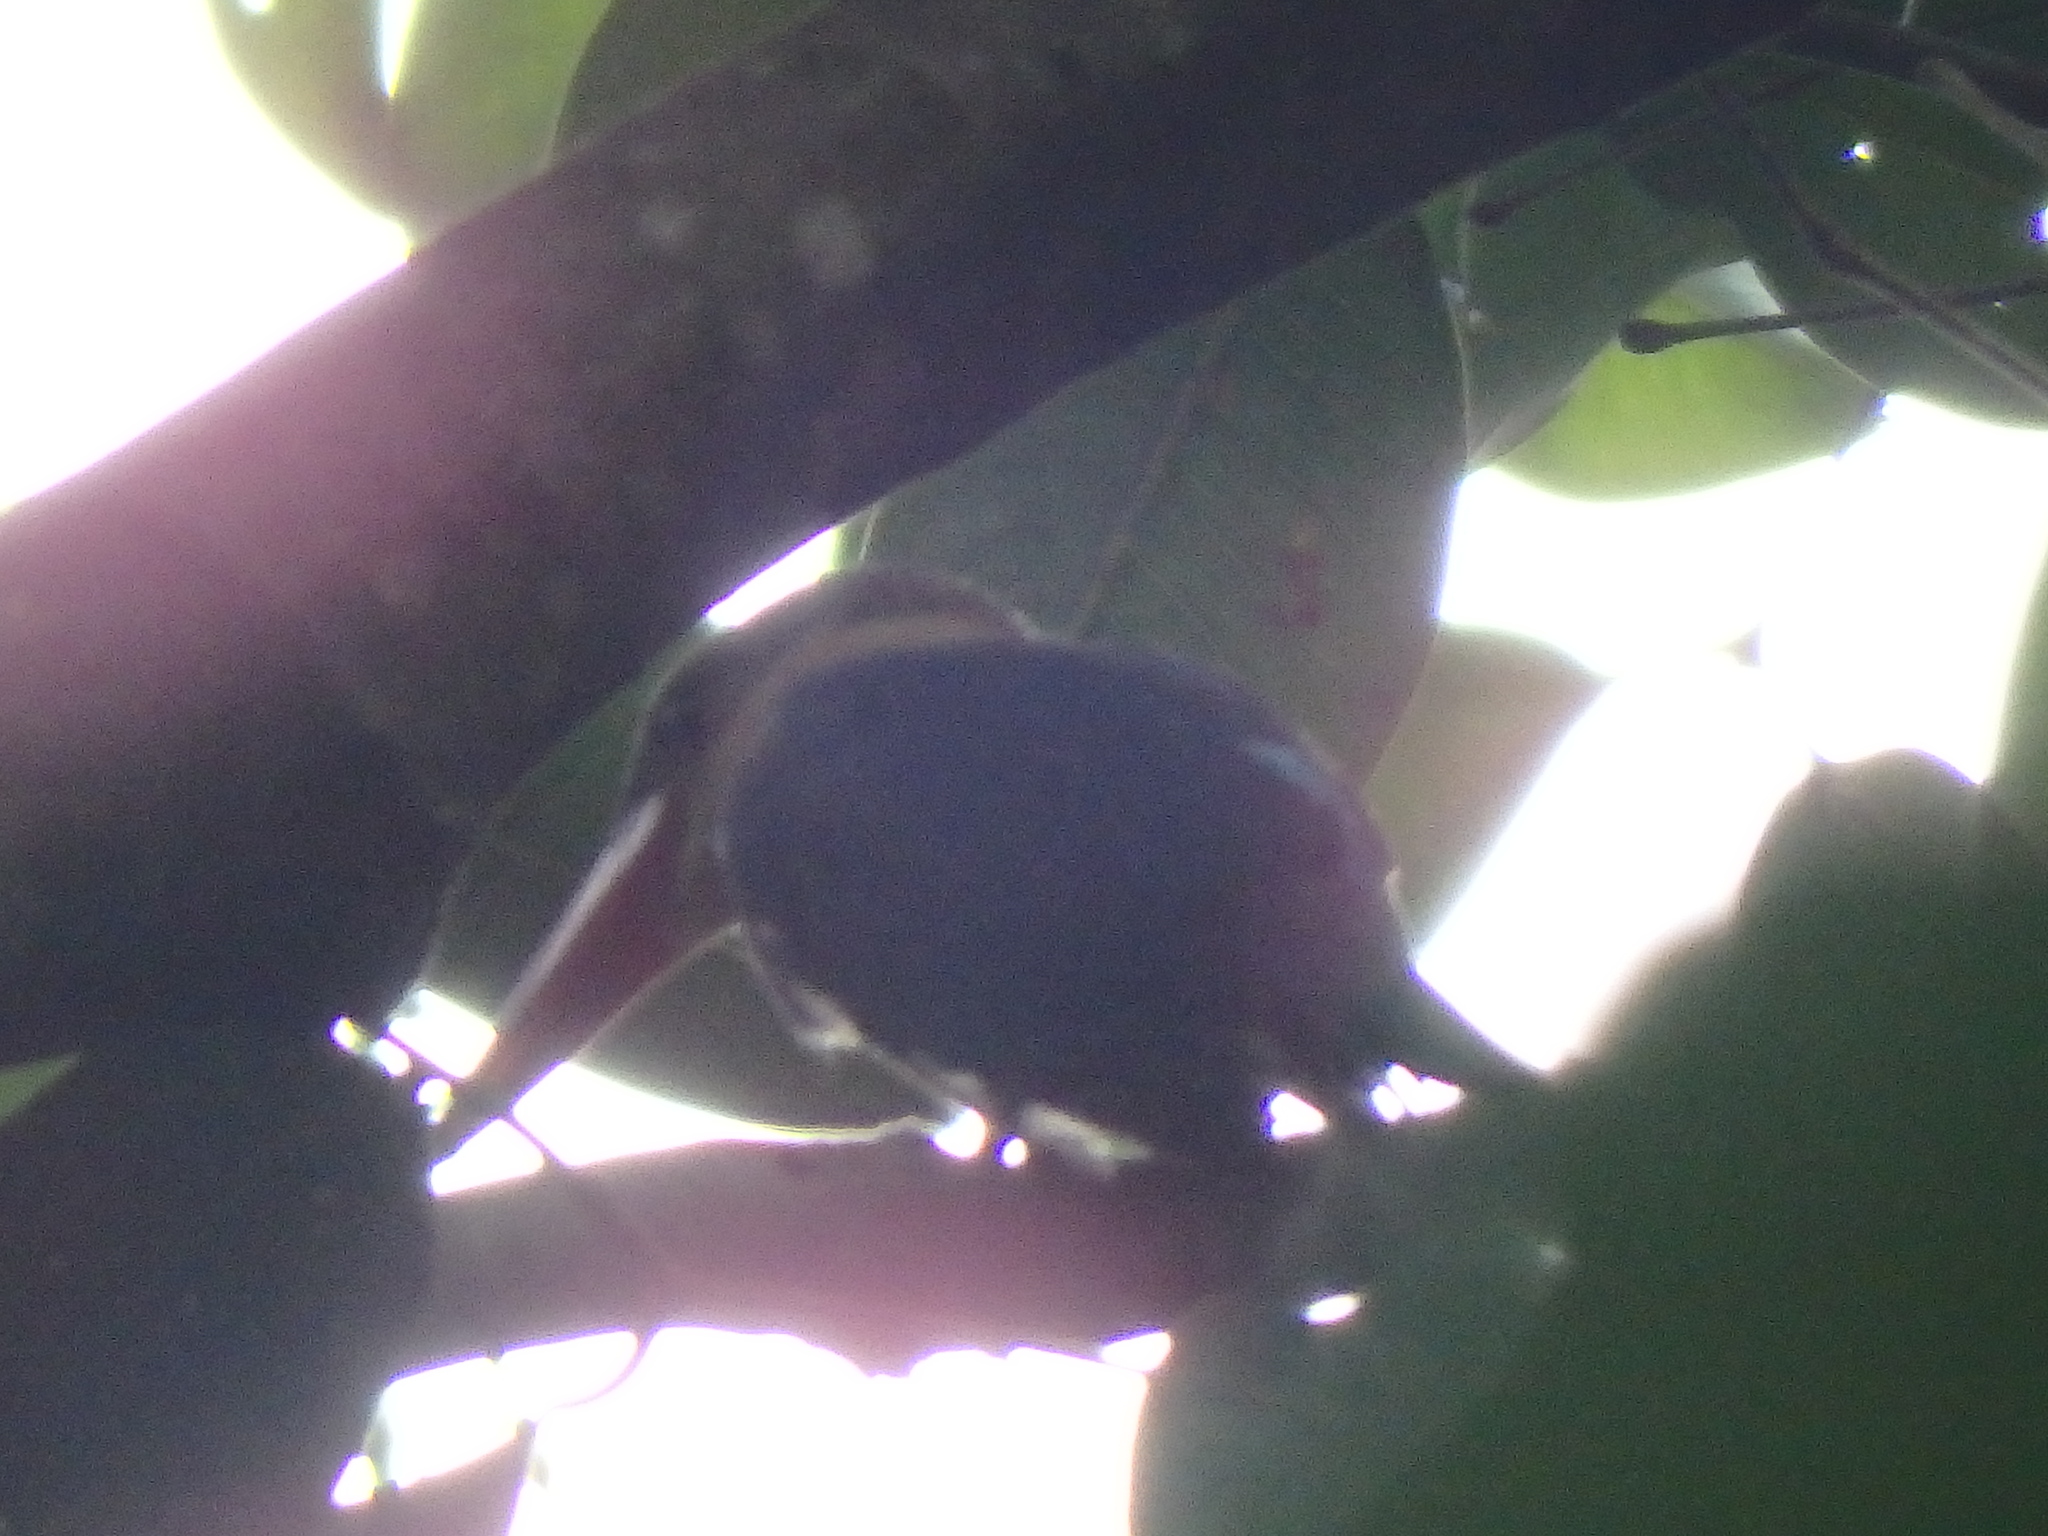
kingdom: Animalia
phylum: Chordata
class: Aves
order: Coraciiformes
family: Alcedinidae
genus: Pelargopsis
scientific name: Pelargopsis capensis
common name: Stork-billed kingfisher
